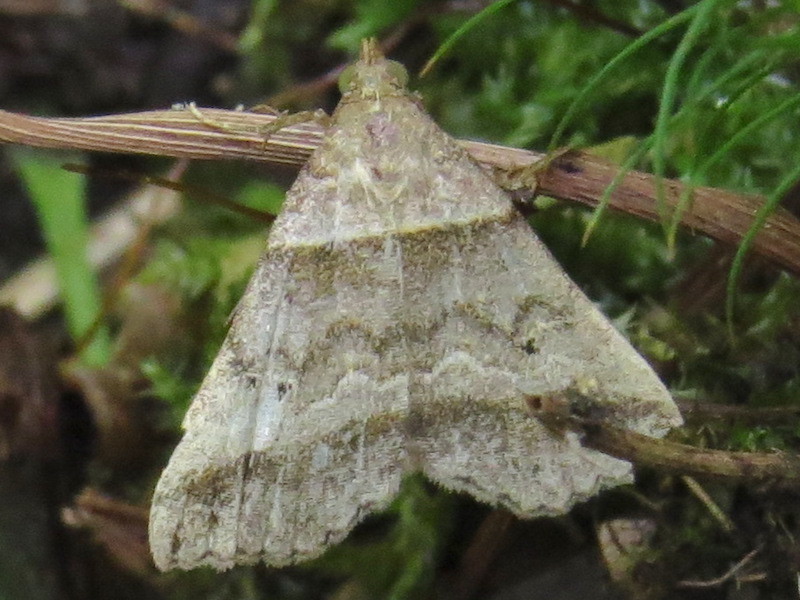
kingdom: Animalia
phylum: Arthropoda
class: Insecta
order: Lepidoptera
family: Erebidae
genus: Phaeolita
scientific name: Phaeolita pyramusalis
